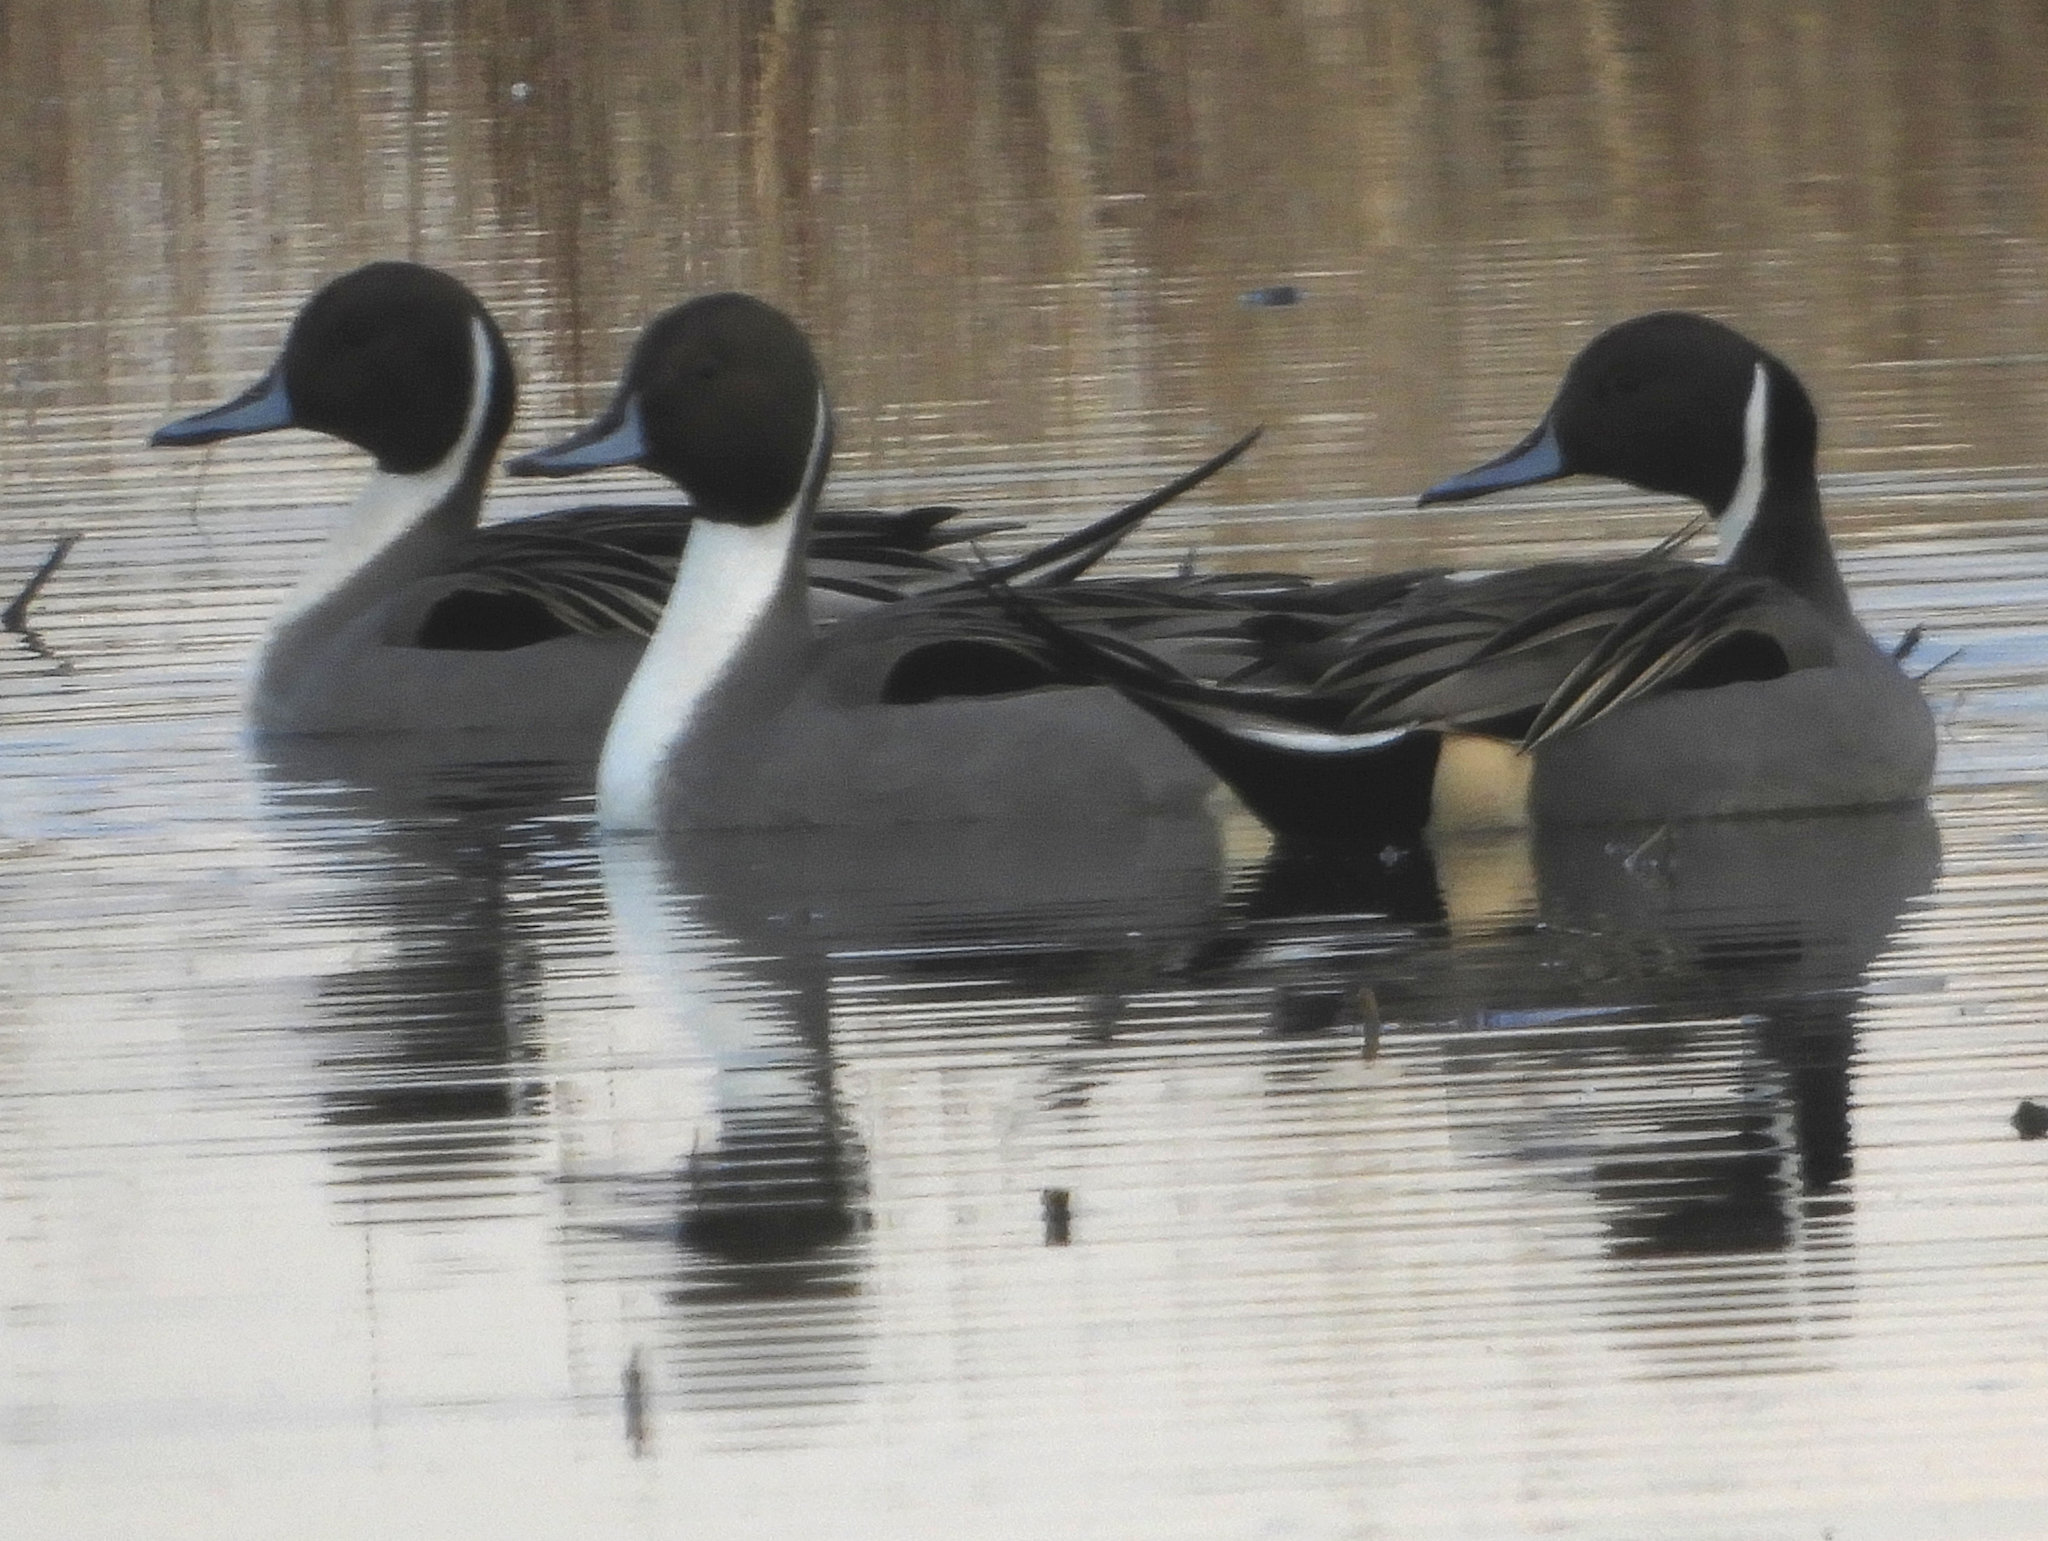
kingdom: Animalia
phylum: Chordata
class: Aves
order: Anseriformes
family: Anatidae
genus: Anas
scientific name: Anas acuta
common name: Northern pintail
